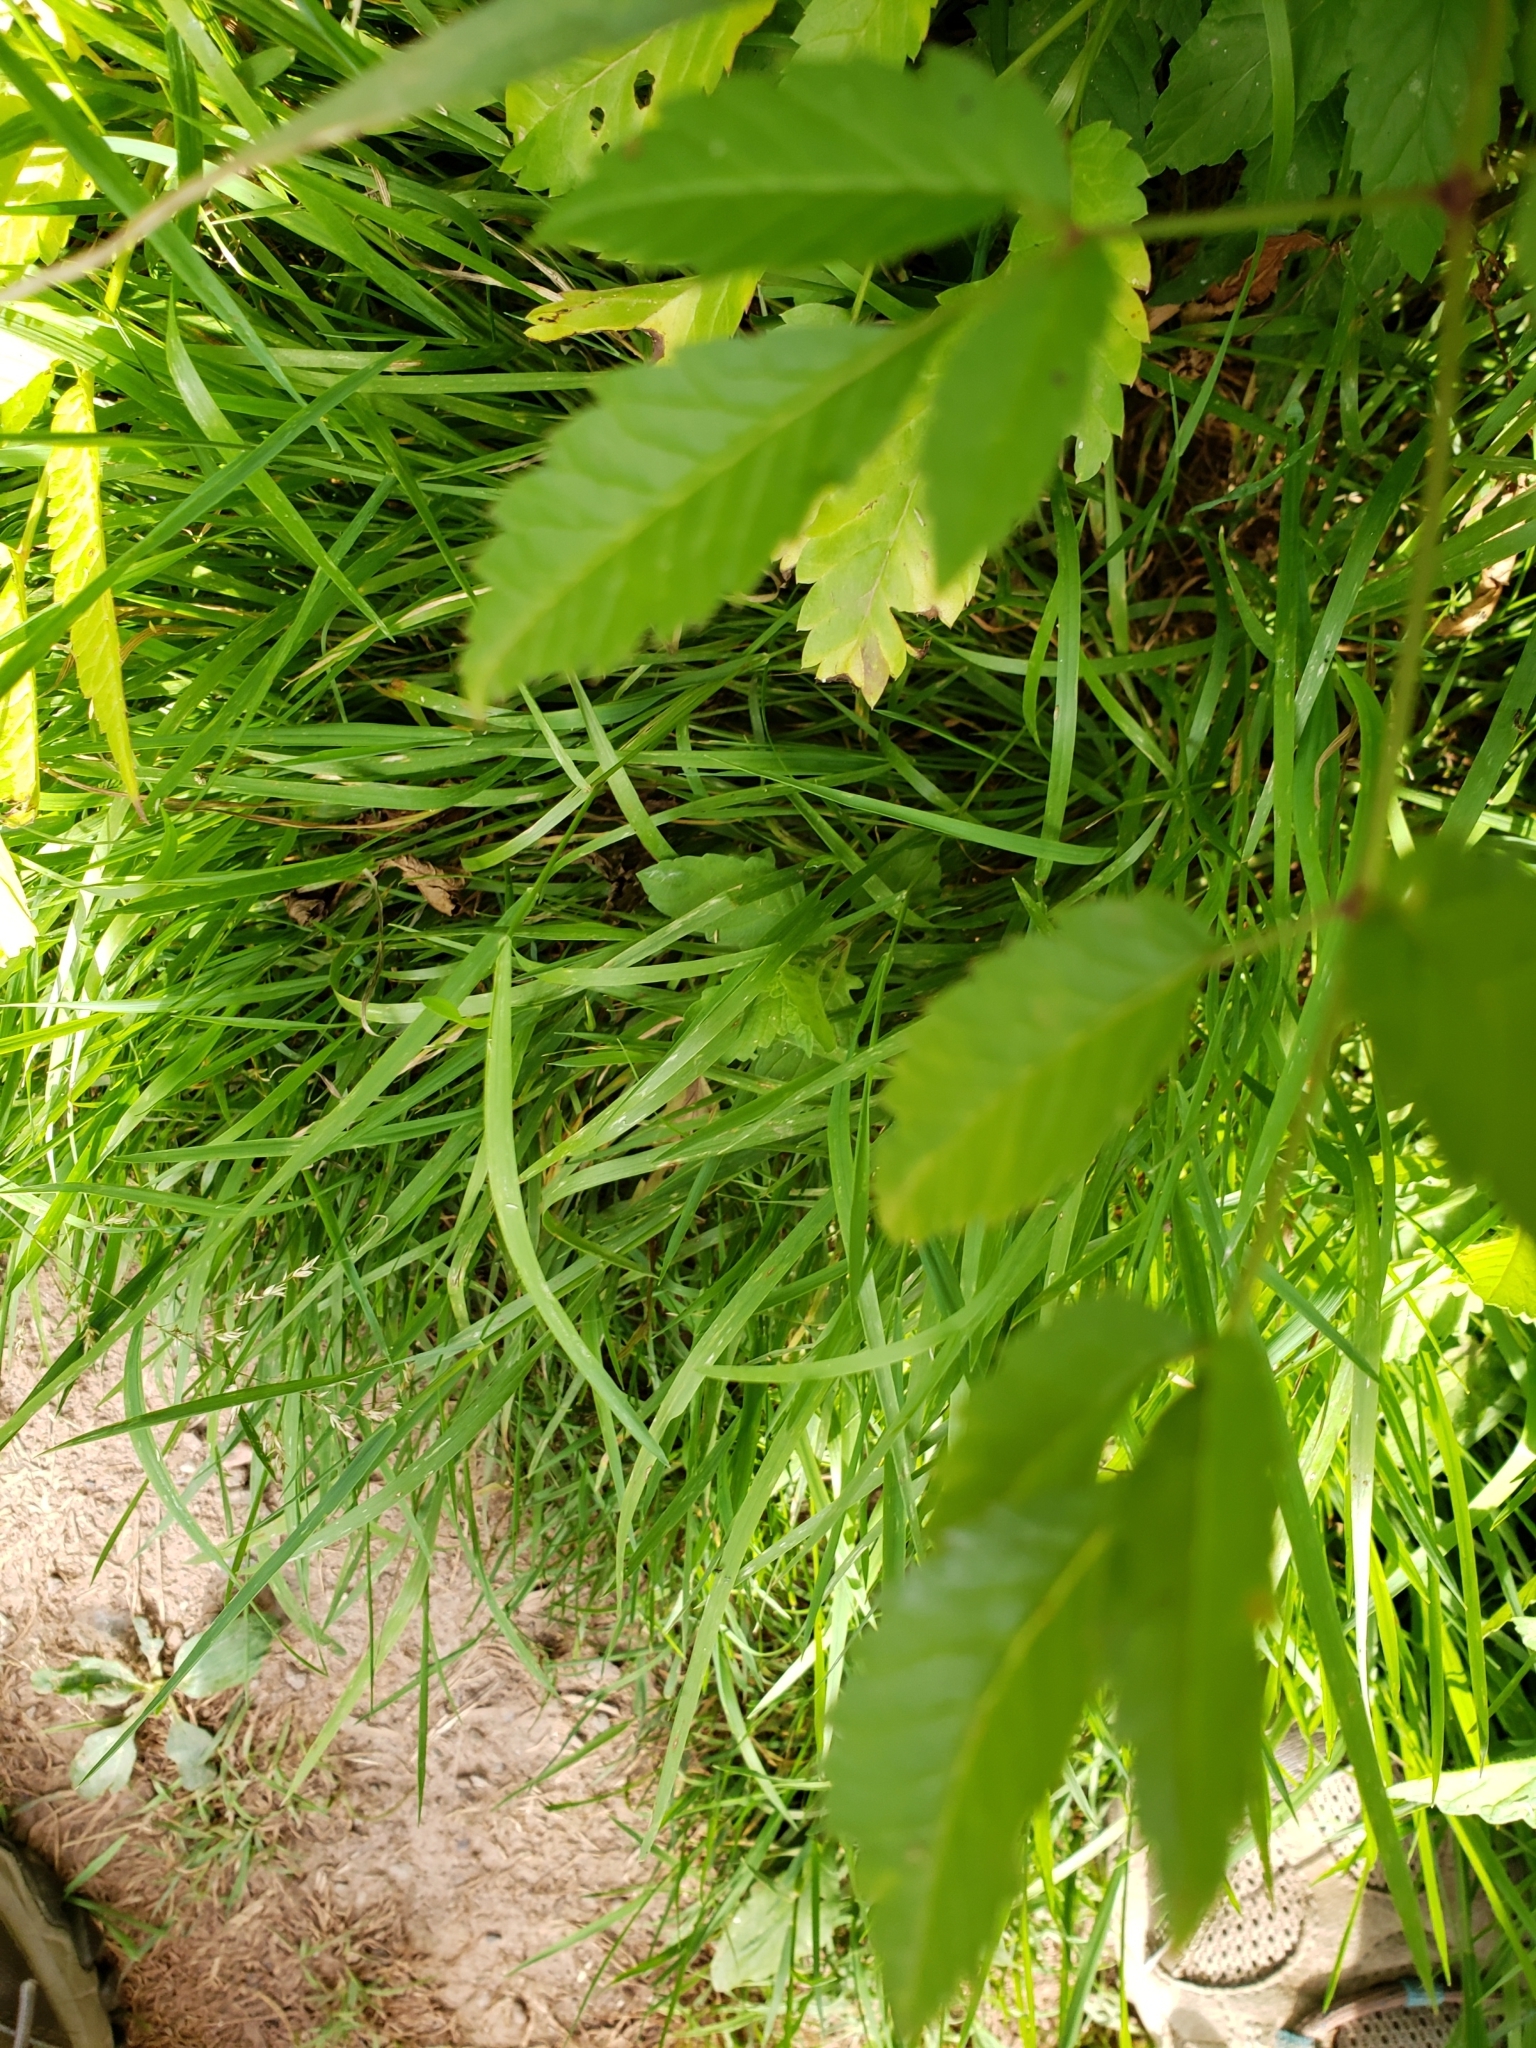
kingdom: Plantae
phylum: Tracheophyta
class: Magnoliopsida
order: Apiales
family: Apiaceae
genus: Cicuta
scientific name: Cicuta maculata
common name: Spotted cowbane
